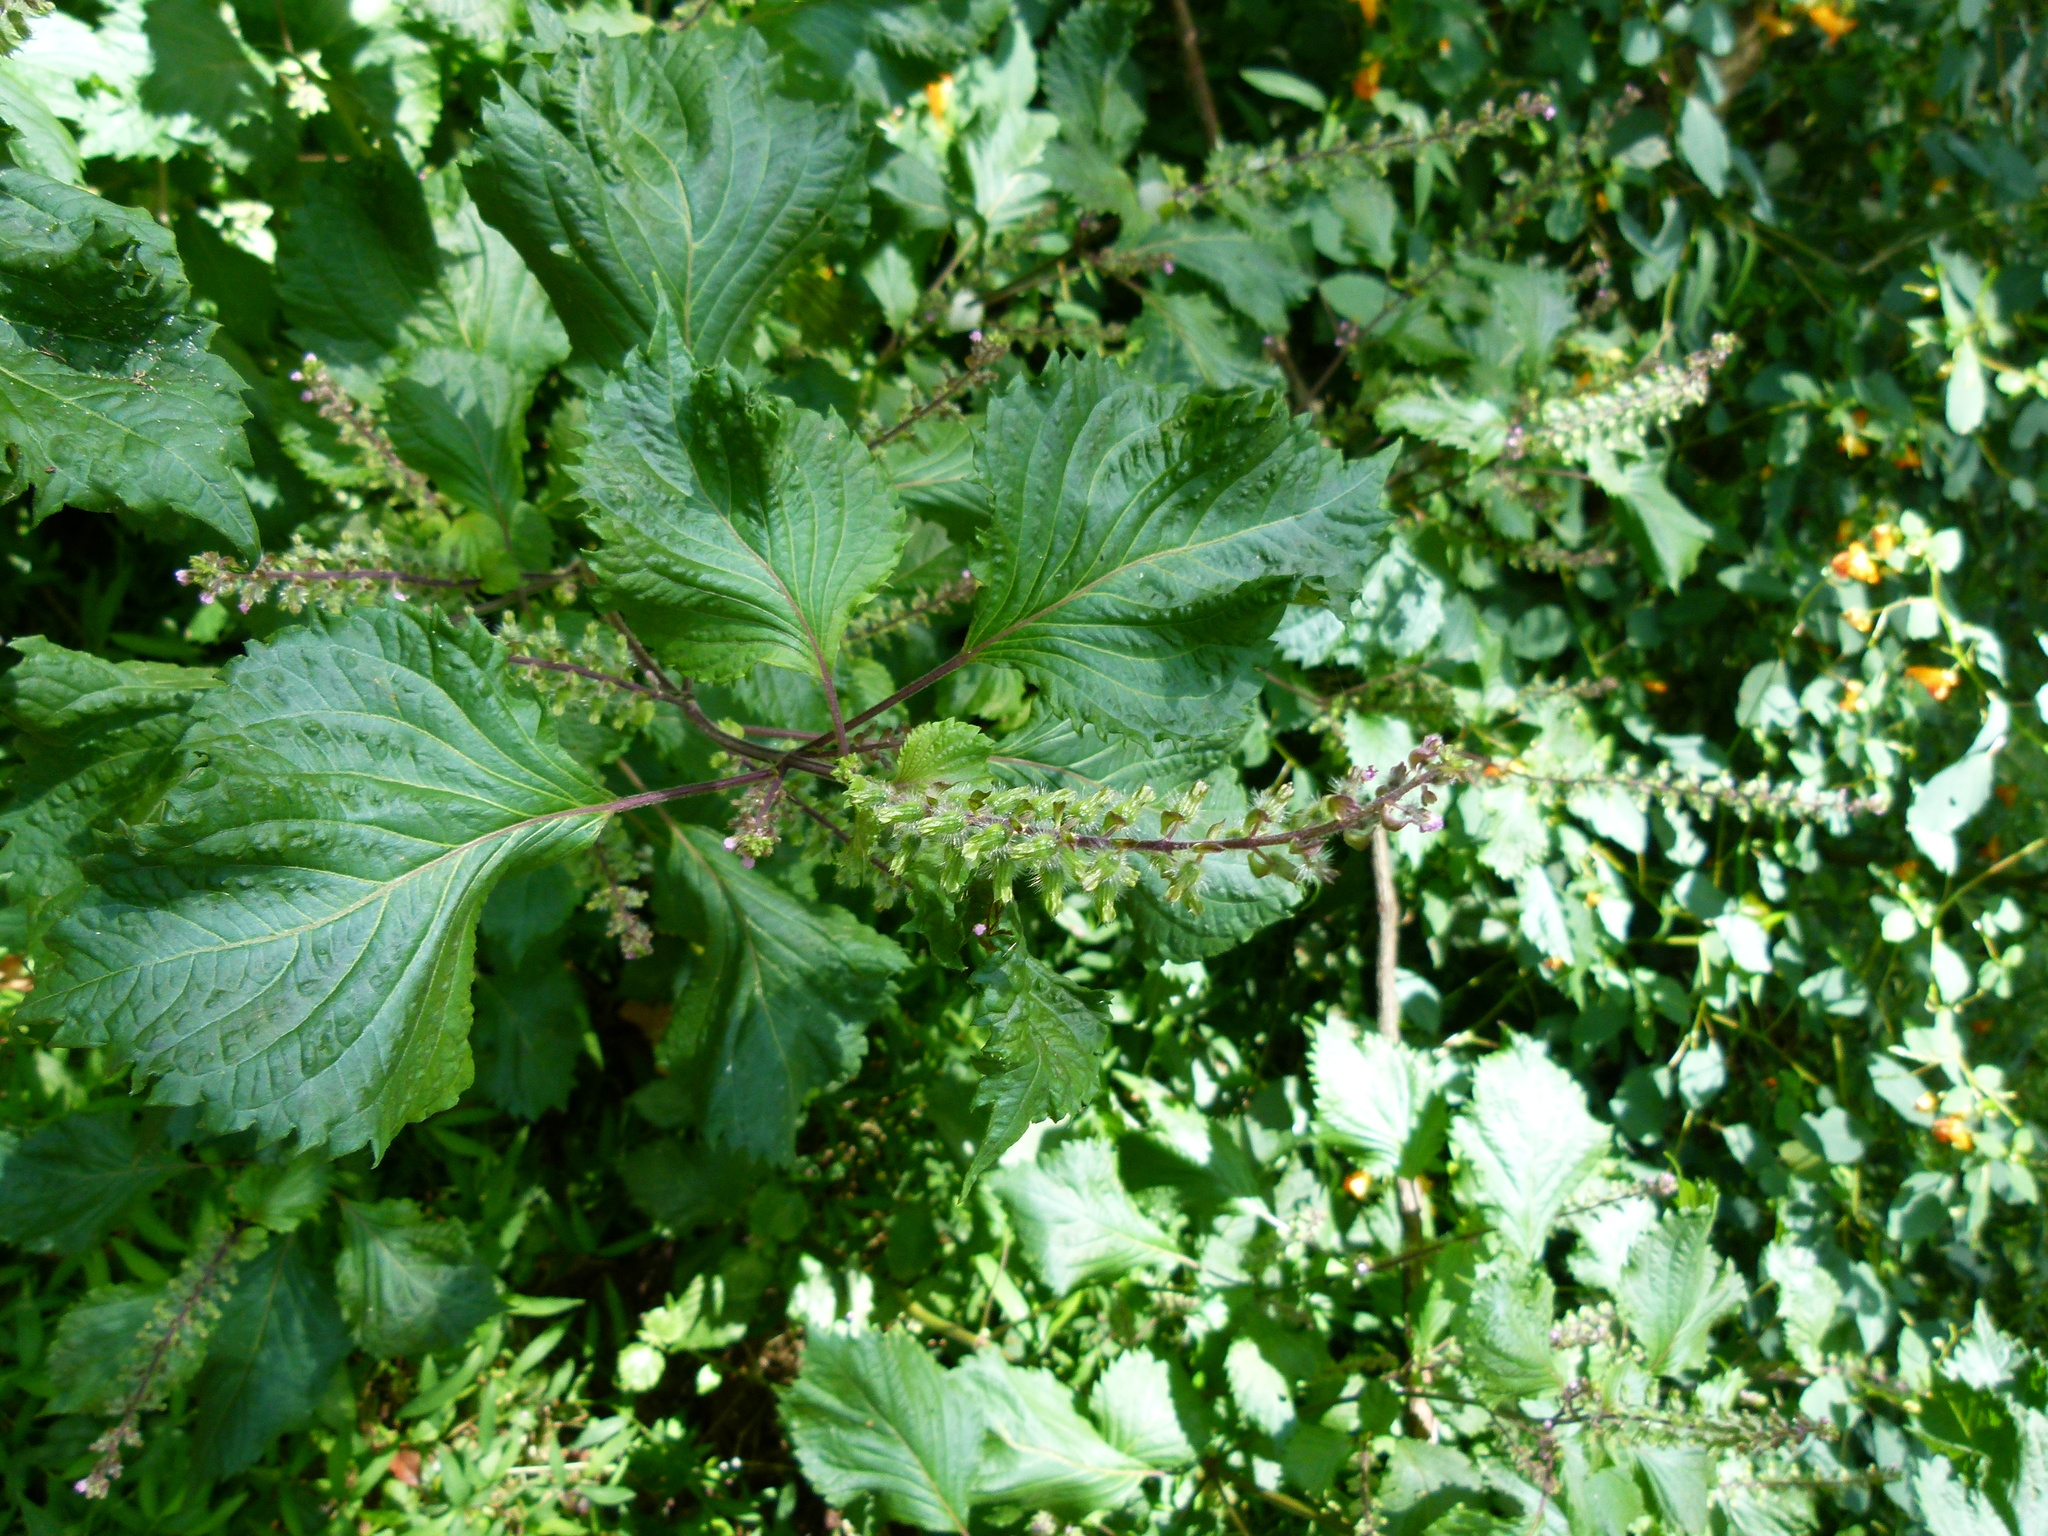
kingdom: Plantae
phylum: Tracheophyta
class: Magnoliopsida
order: Lamiales
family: Lamiaceae
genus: Perilla
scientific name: Perilla frutescens
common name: Perilla
